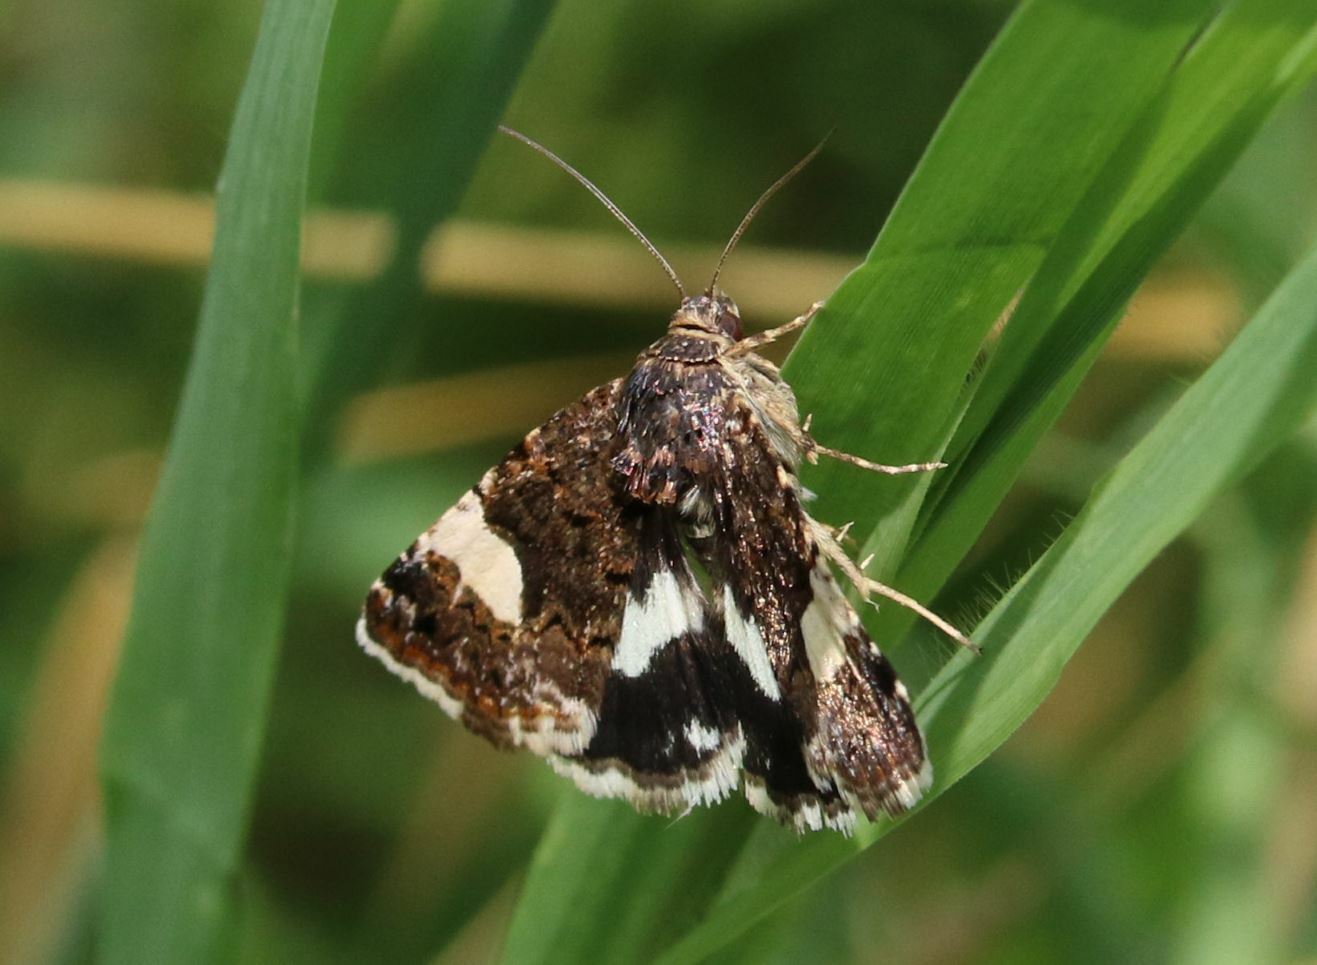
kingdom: Animalia
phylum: Arthropoda
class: Insecta
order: Lepidoptera
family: Erebidae
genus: Tyta
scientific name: Tyta luctuosa
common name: Four-spotted
